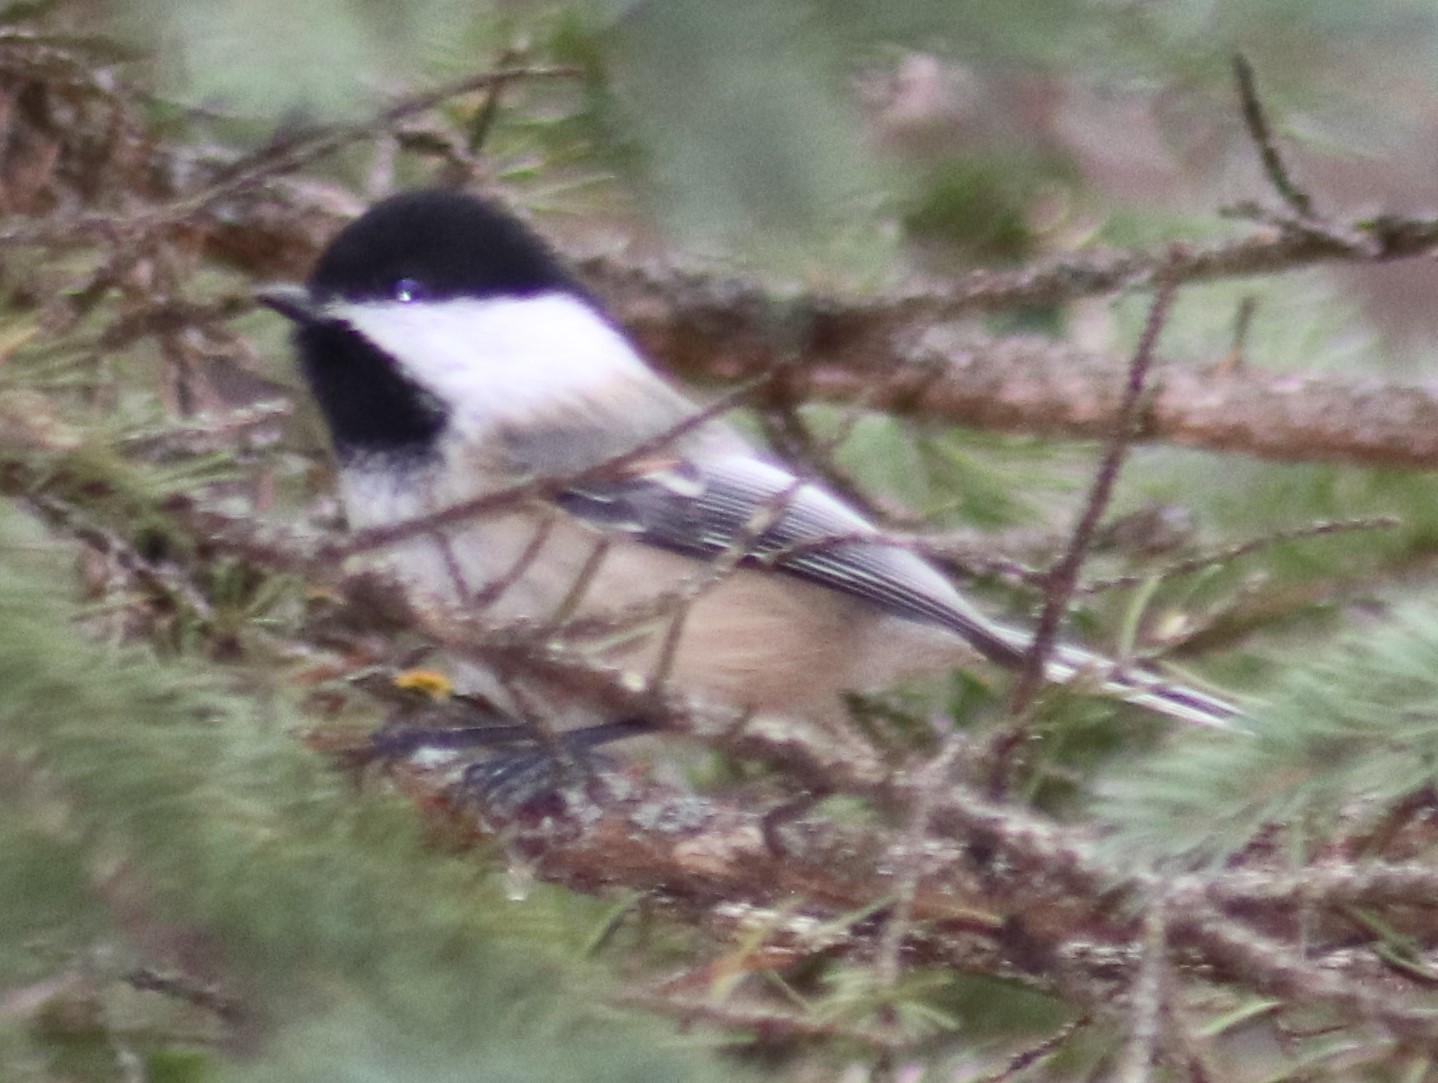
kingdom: Animalia
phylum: Chordata
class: Aves
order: Passeriformes
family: Paridae
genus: Poecile
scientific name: Poecile atricapillus
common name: Black-capped chickadee
